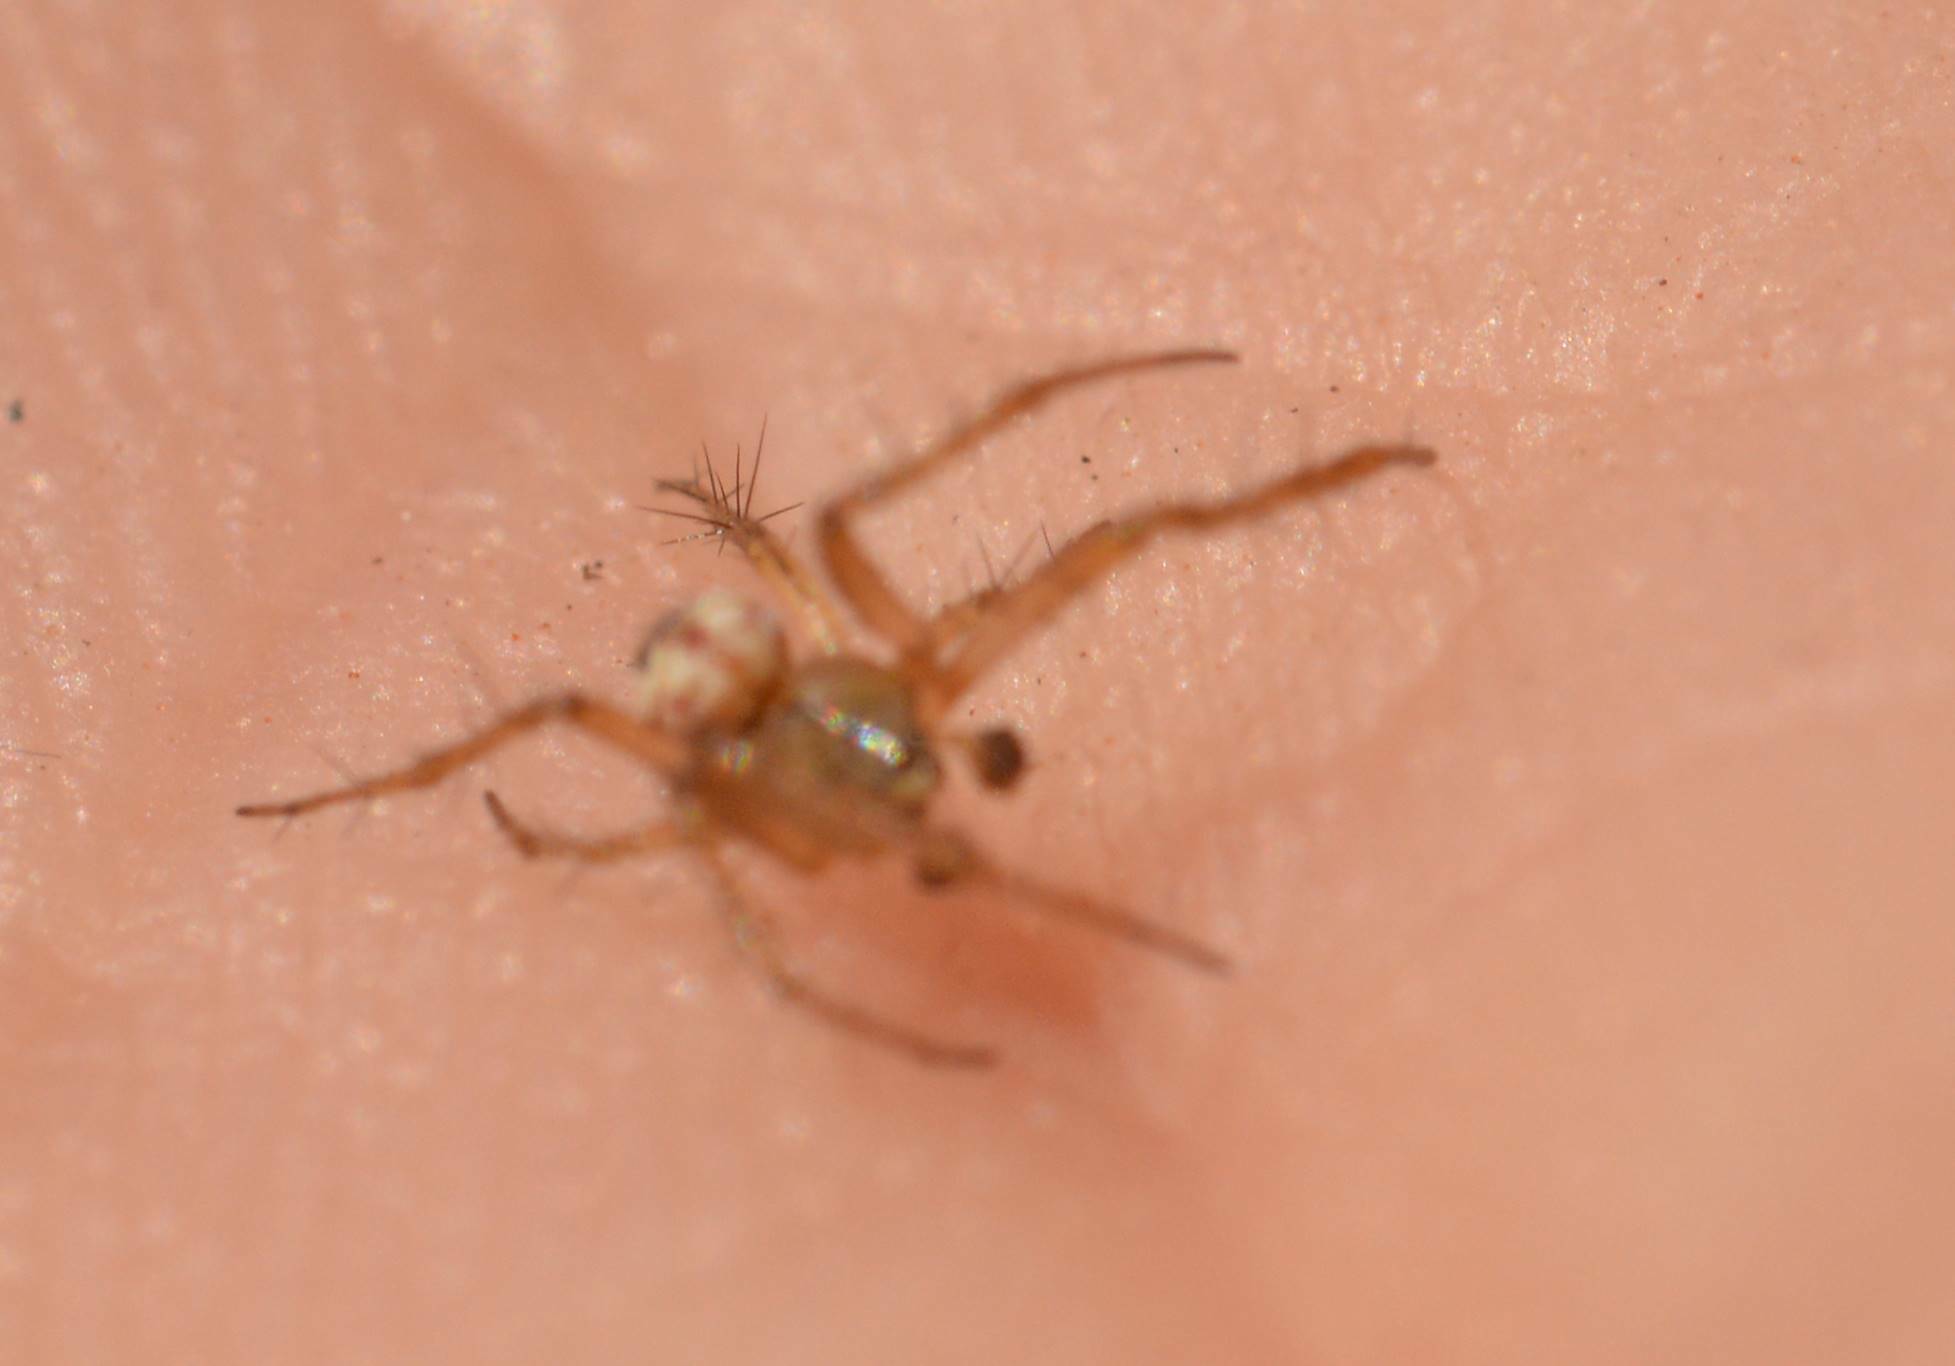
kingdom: Animalia
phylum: Arthropoda
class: Arachnida
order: Araneae
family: Araneidae
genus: Mangora
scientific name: Mangora acalypha
